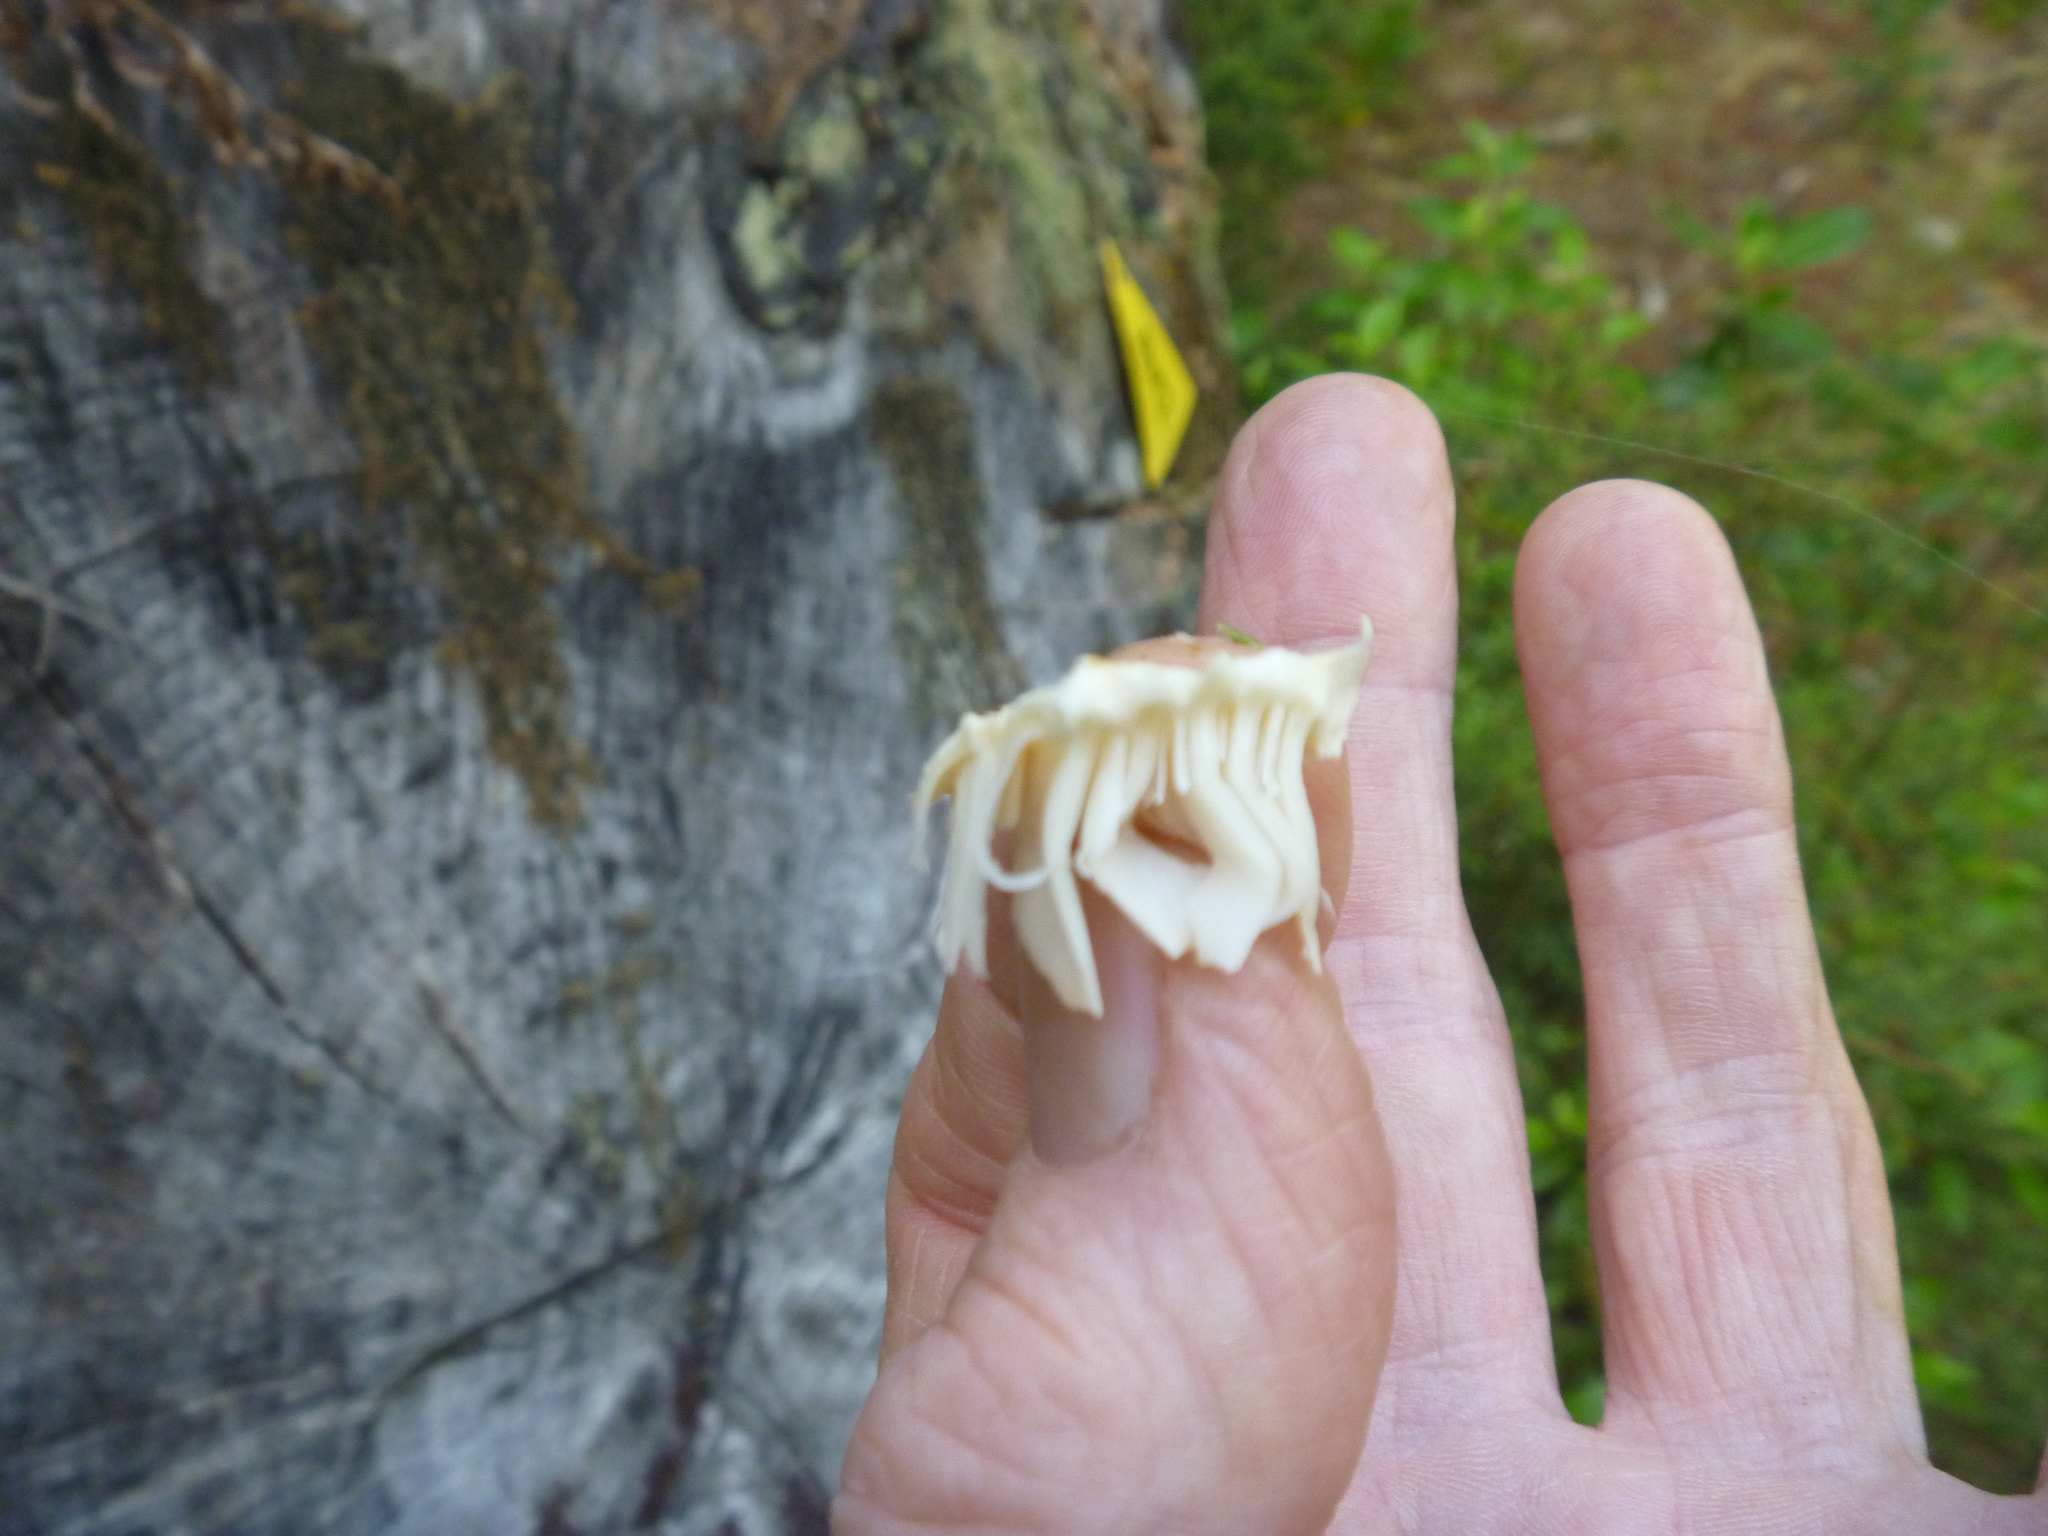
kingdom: Fungi
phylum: Basidiomycota
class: Agaricomycetes
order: Gloeophyllales
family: Gloeophyllaceae
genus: Neolentinus
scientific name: Neolentinus lepideus
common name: Scaly sawgill
